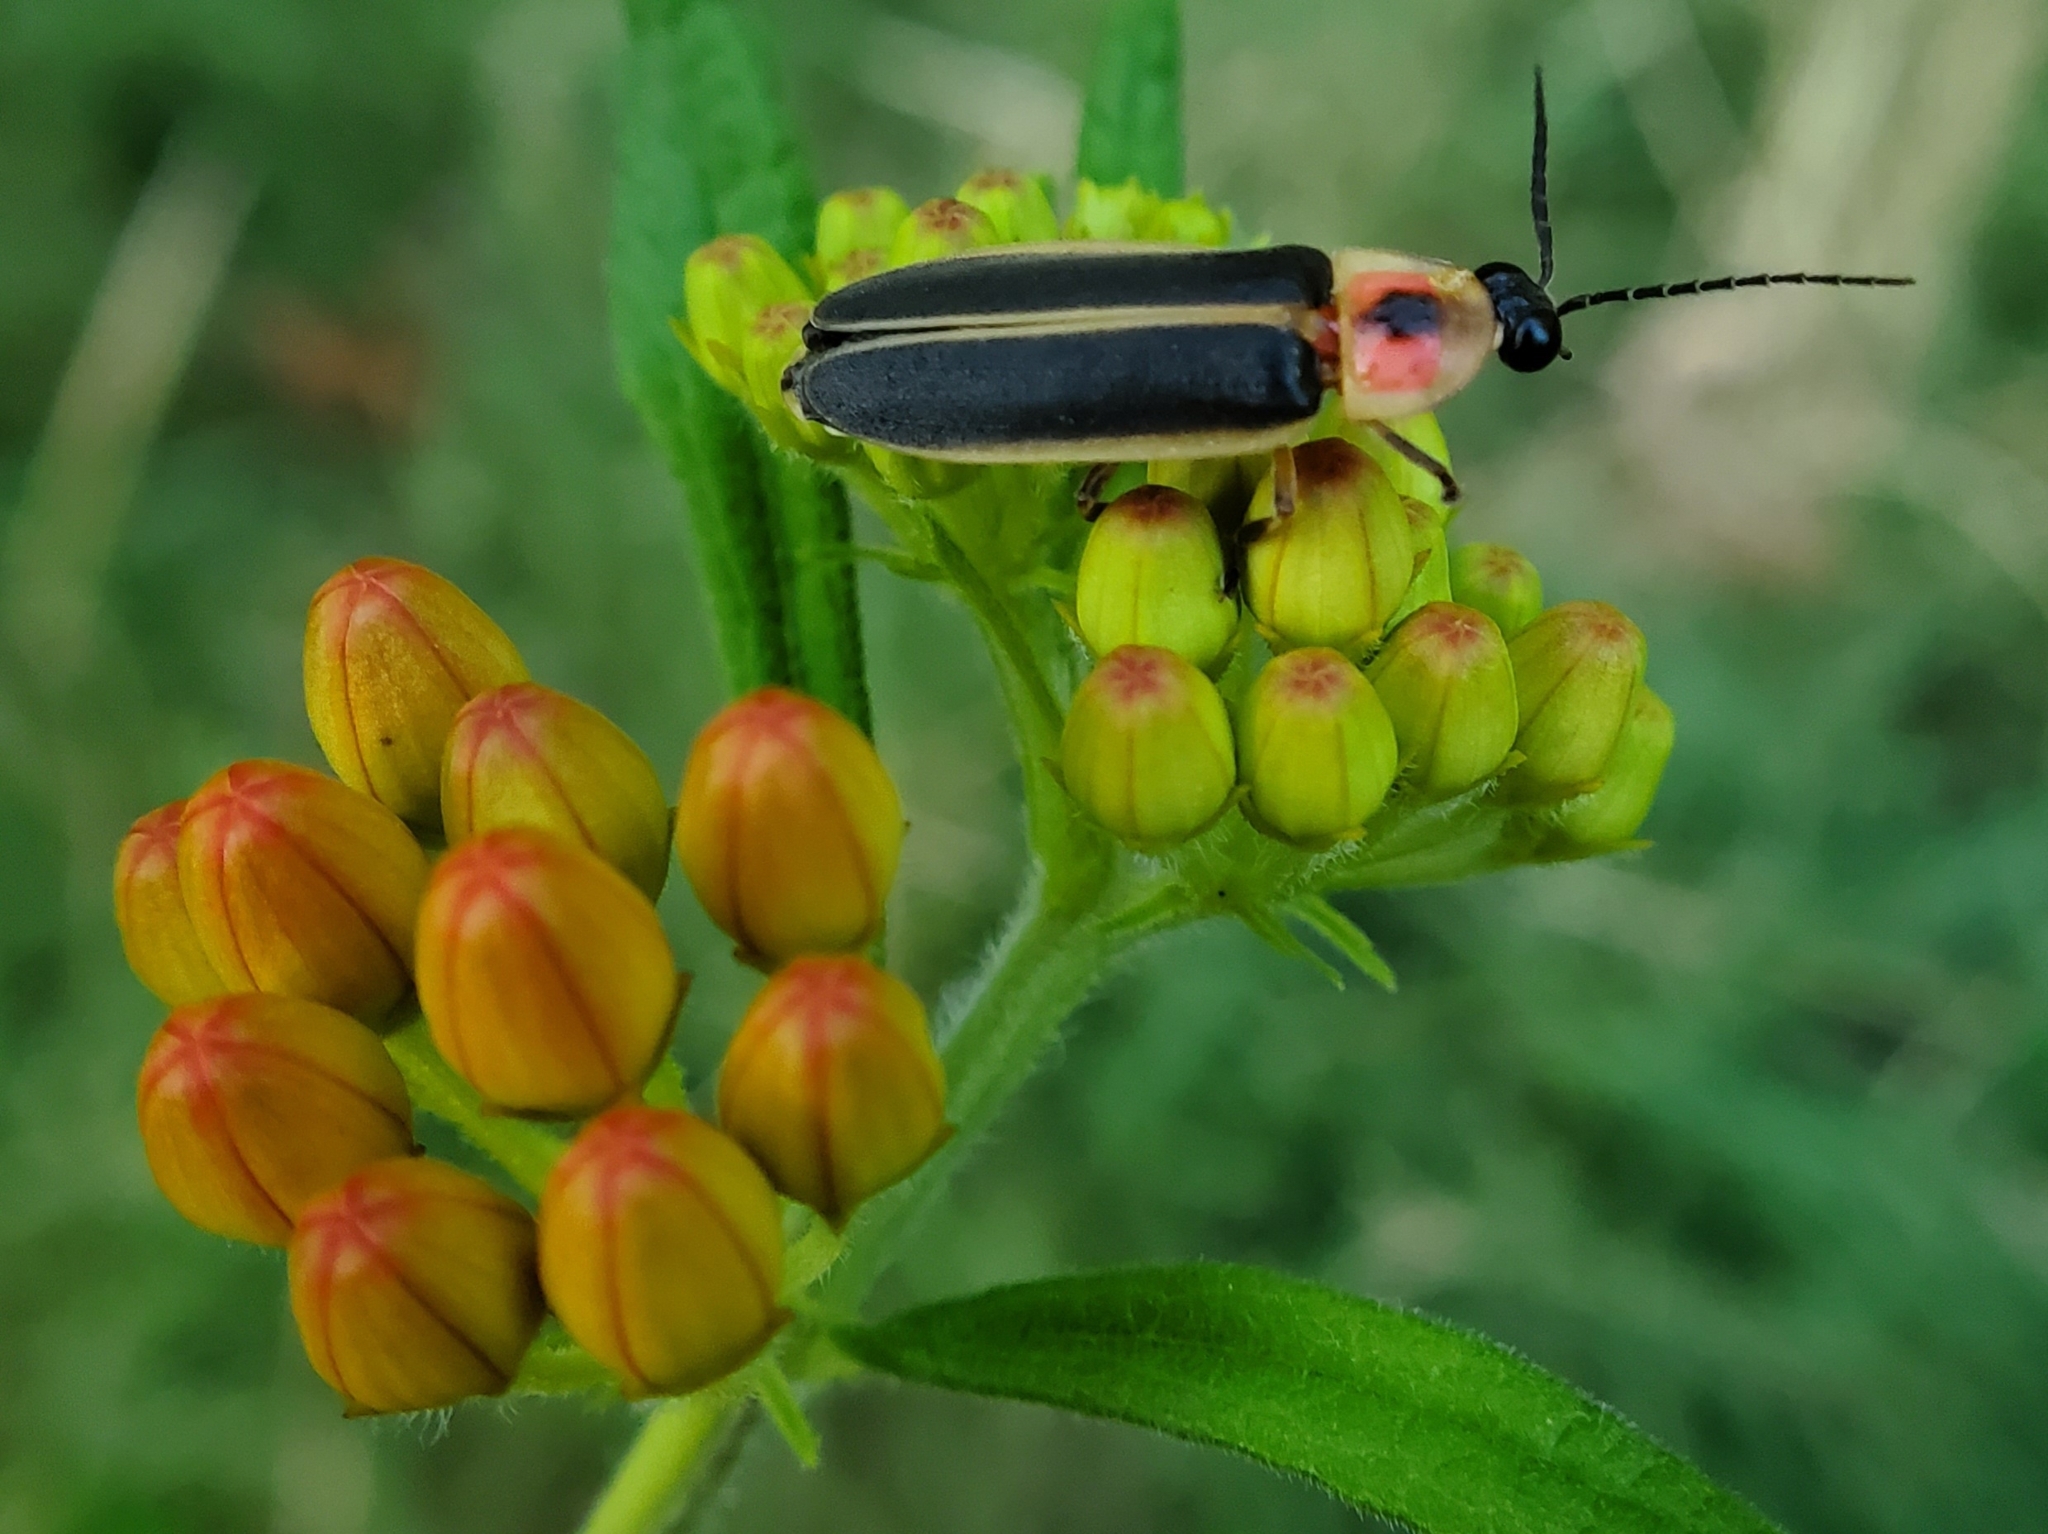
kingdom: Animalia
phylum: Arthropoda
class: Insecta
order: Coleoptera
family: Lampyridae
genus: Photinus
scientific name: Photinus pyralis
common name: Big dipper firefly
